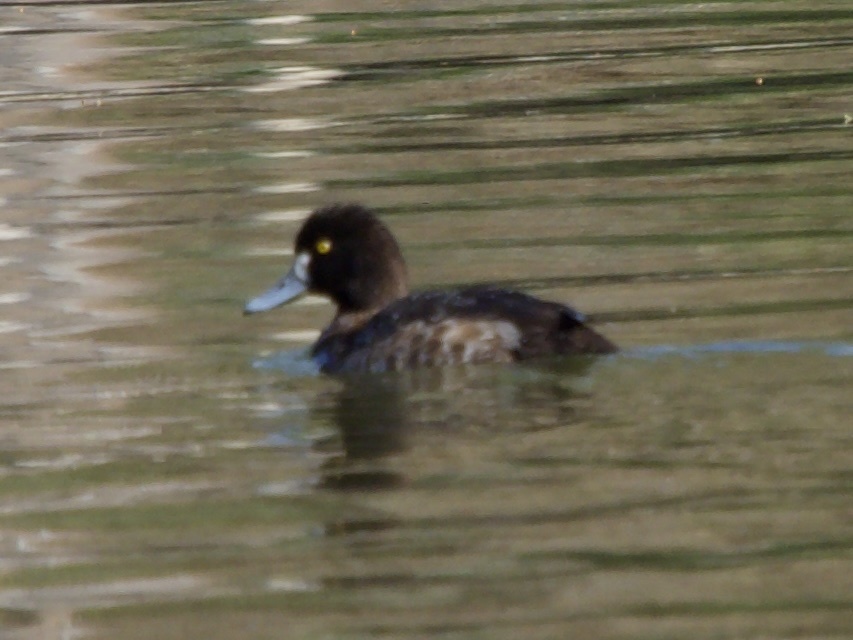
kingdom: Animalia
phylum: Chordata
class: Aves
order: Anseriformes
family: Anatidae
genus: Aythya
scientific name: Aythya affinis
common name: Lesser scaup
